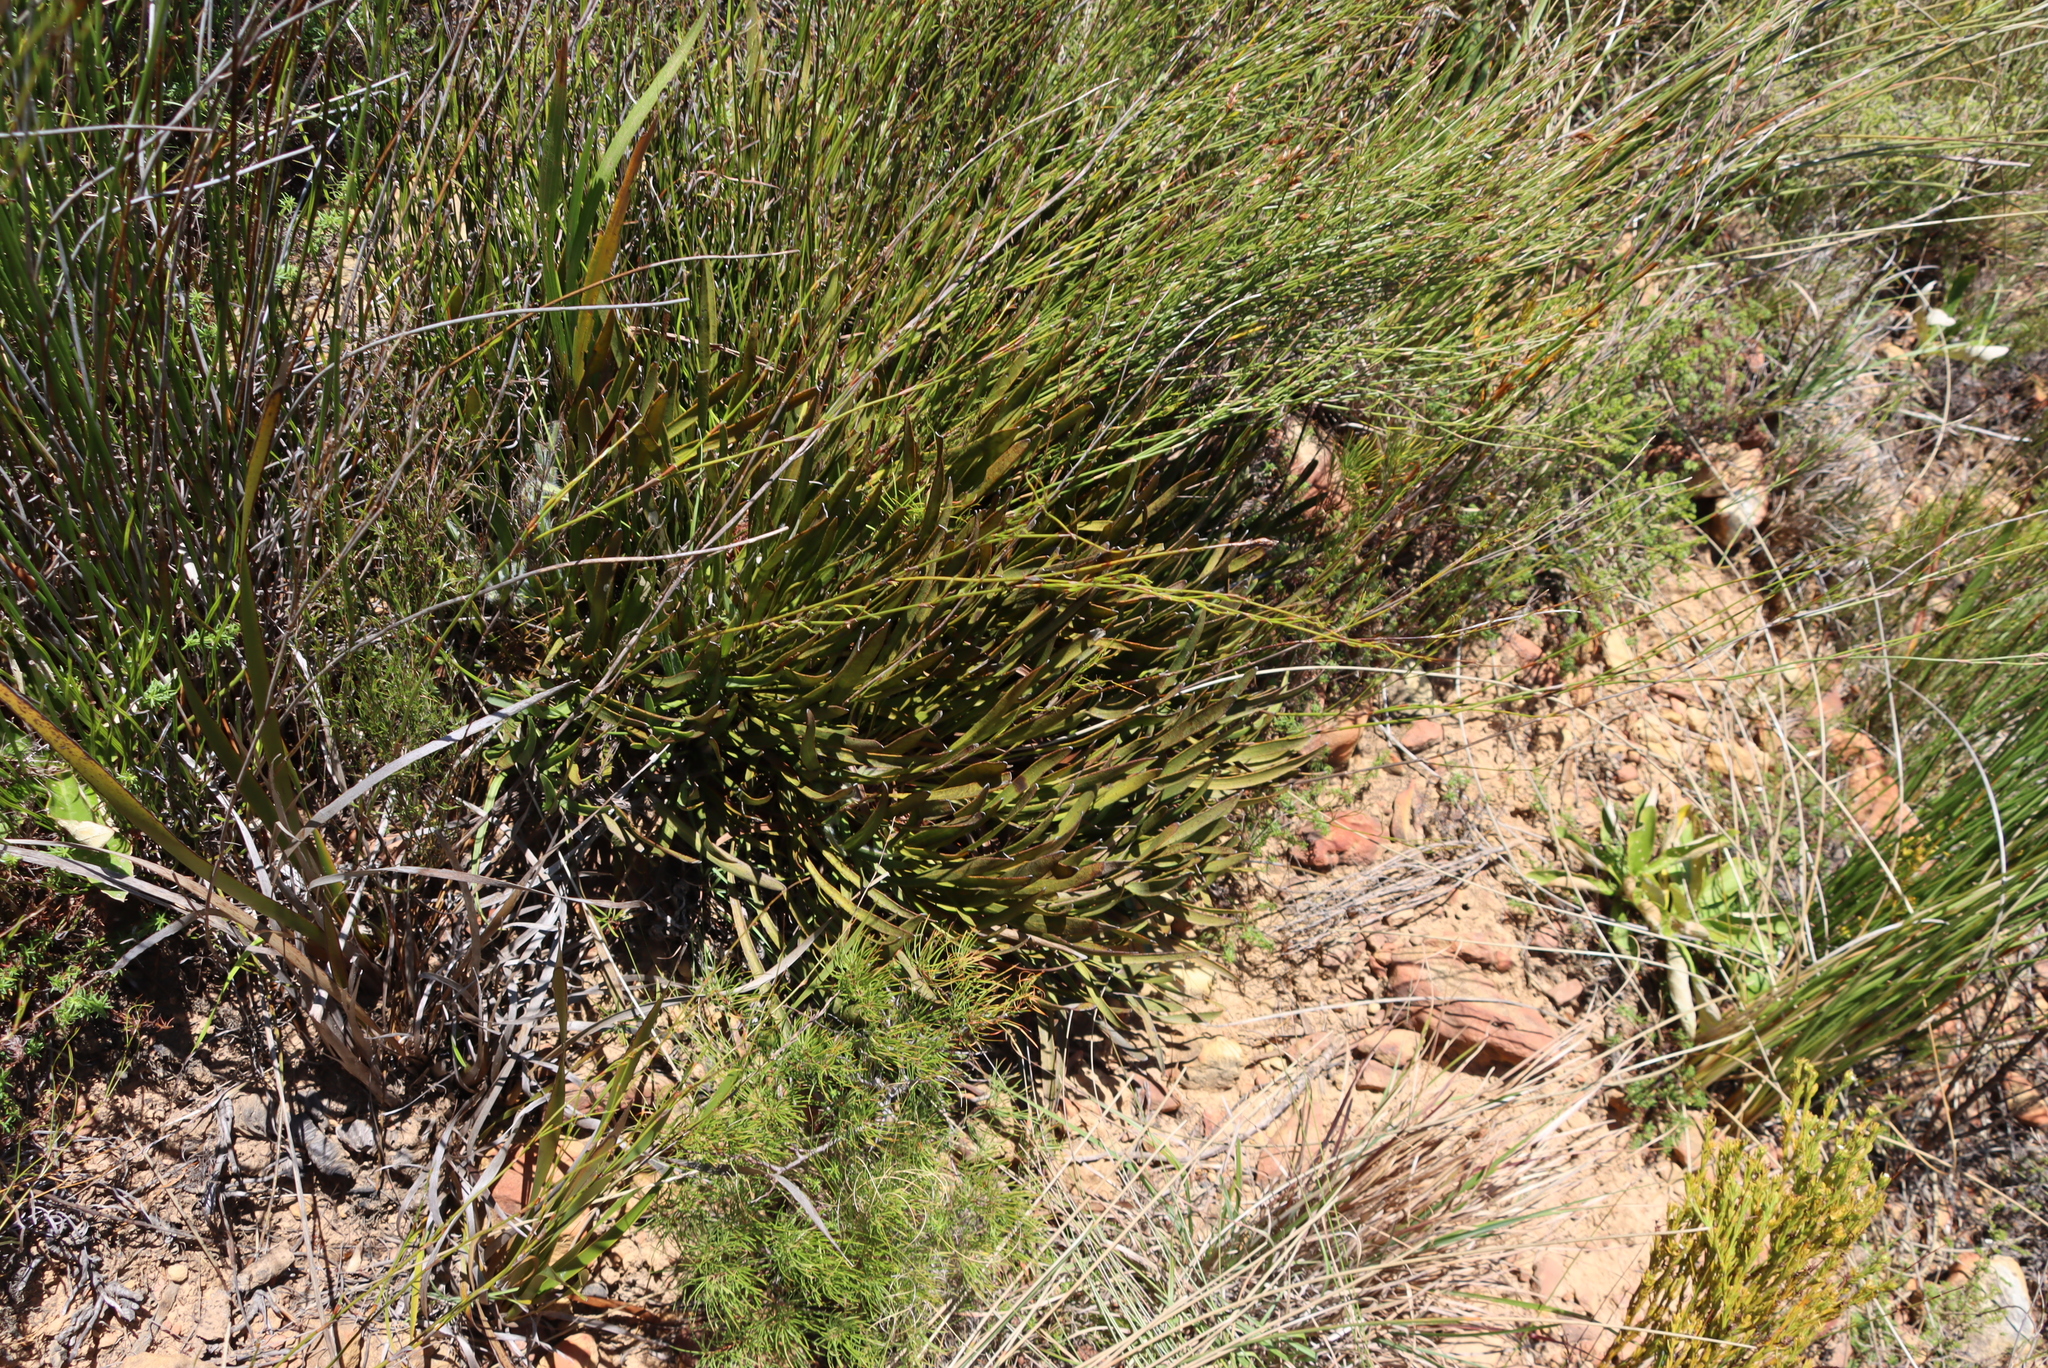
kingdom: Plantae
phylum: Tracheophyta
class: Magnoliopsida
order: Proteales
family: Proteaceae
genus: Protea
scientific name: Protea scabra
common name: Sandpaper-leaf sugarbush
